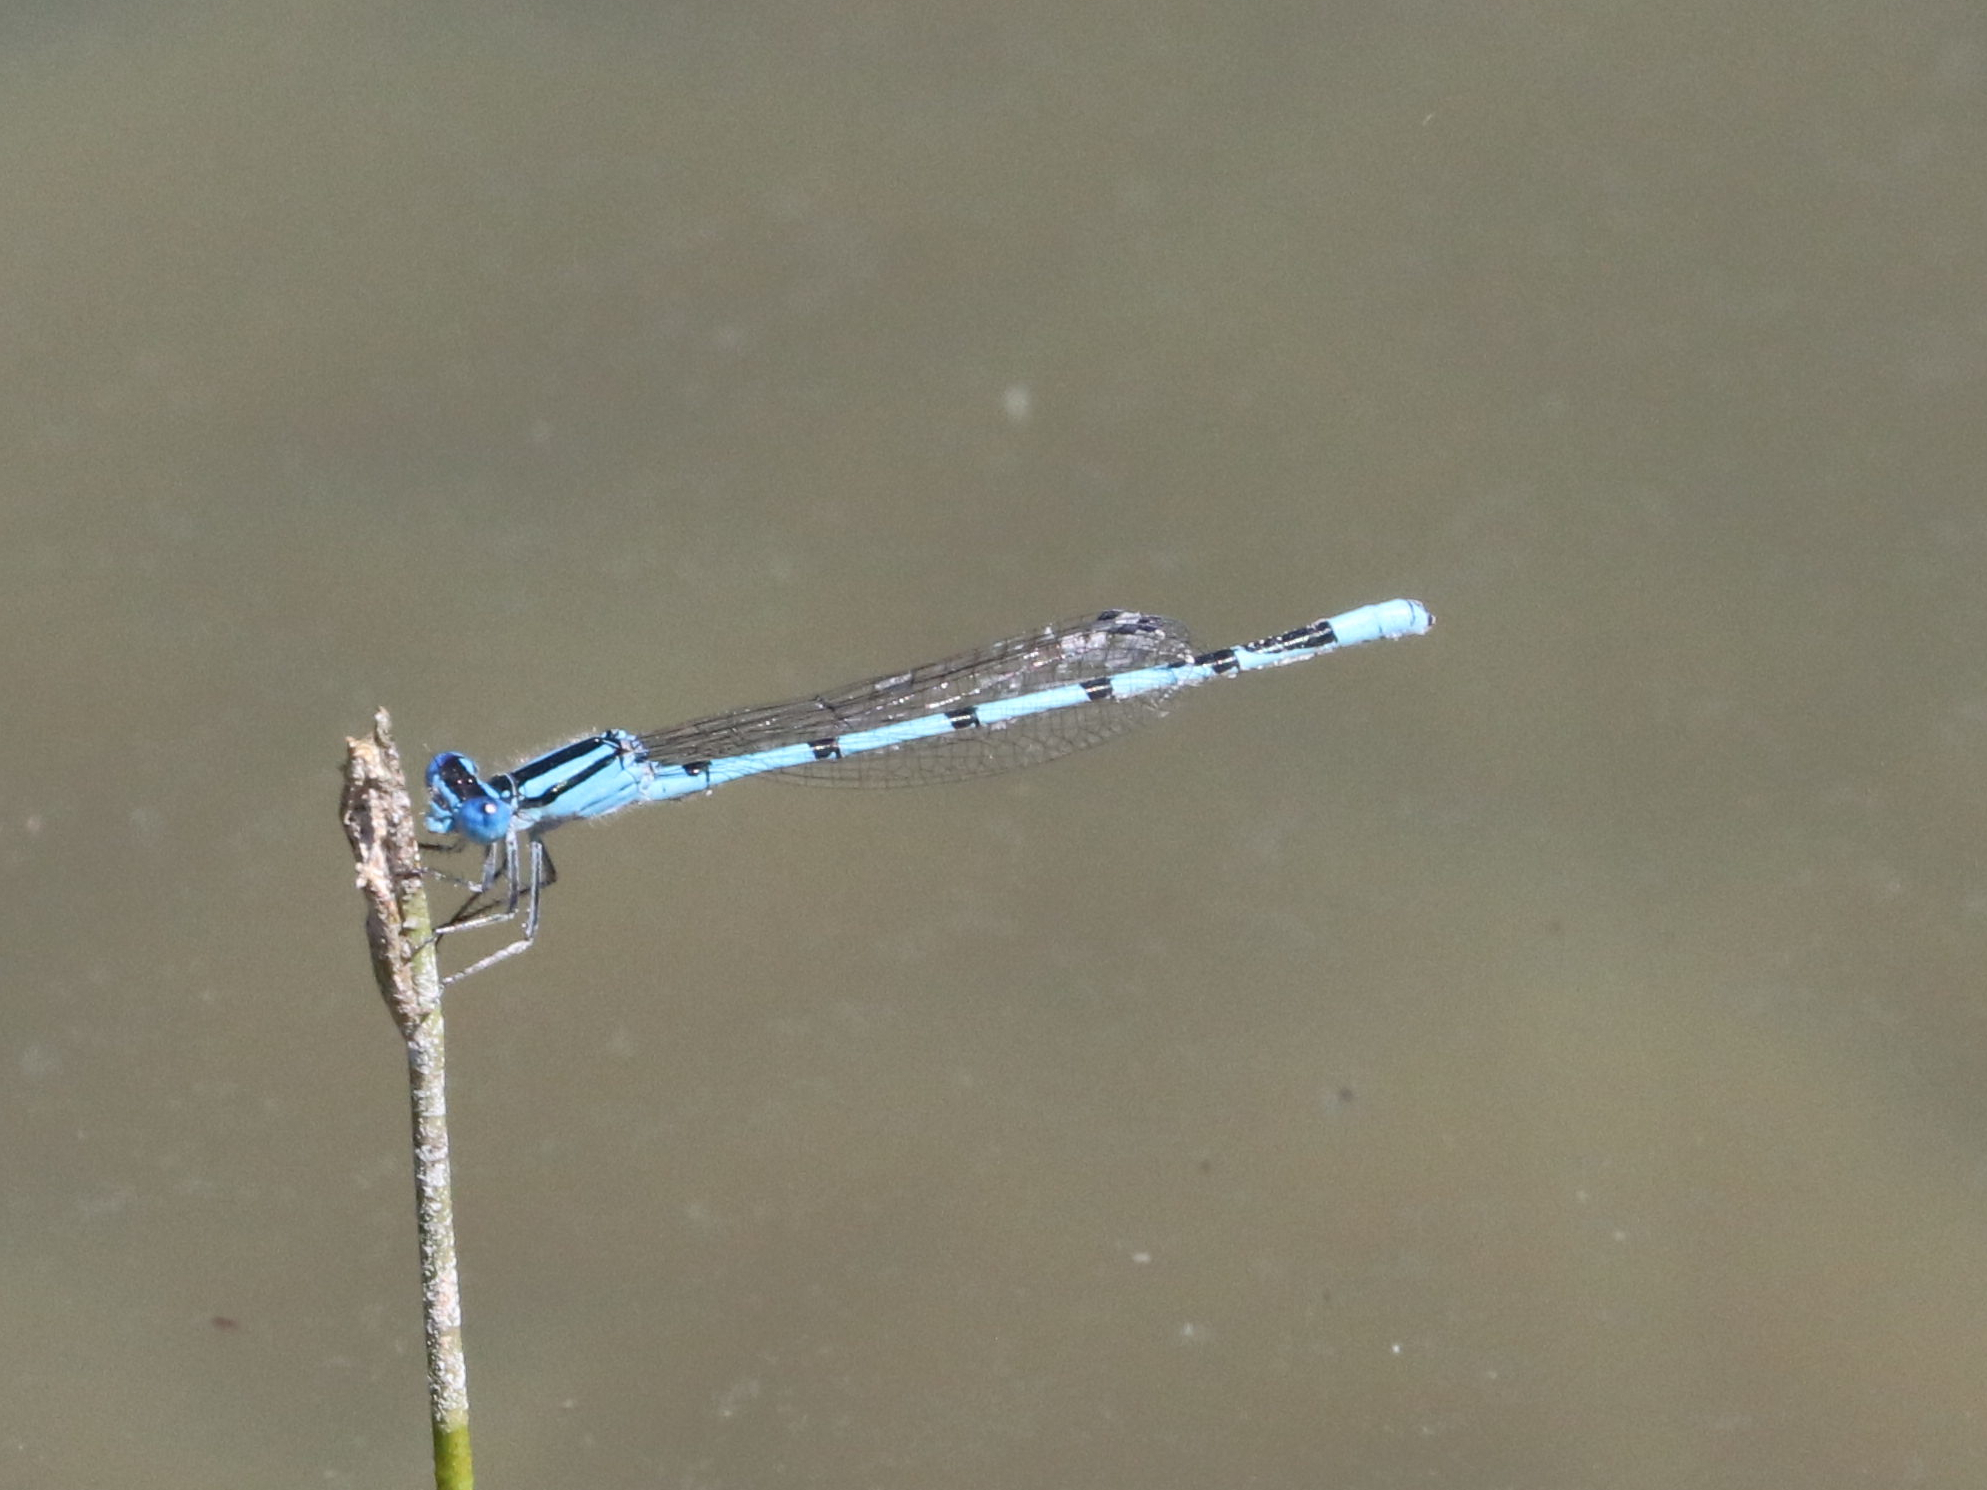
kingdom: Animalia
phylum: Arthropoda
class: Insecta
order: Odonata
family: Coenagrionidae
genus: Enallagma
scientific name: Enallagma doubledayi
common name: Atlantic bluet
